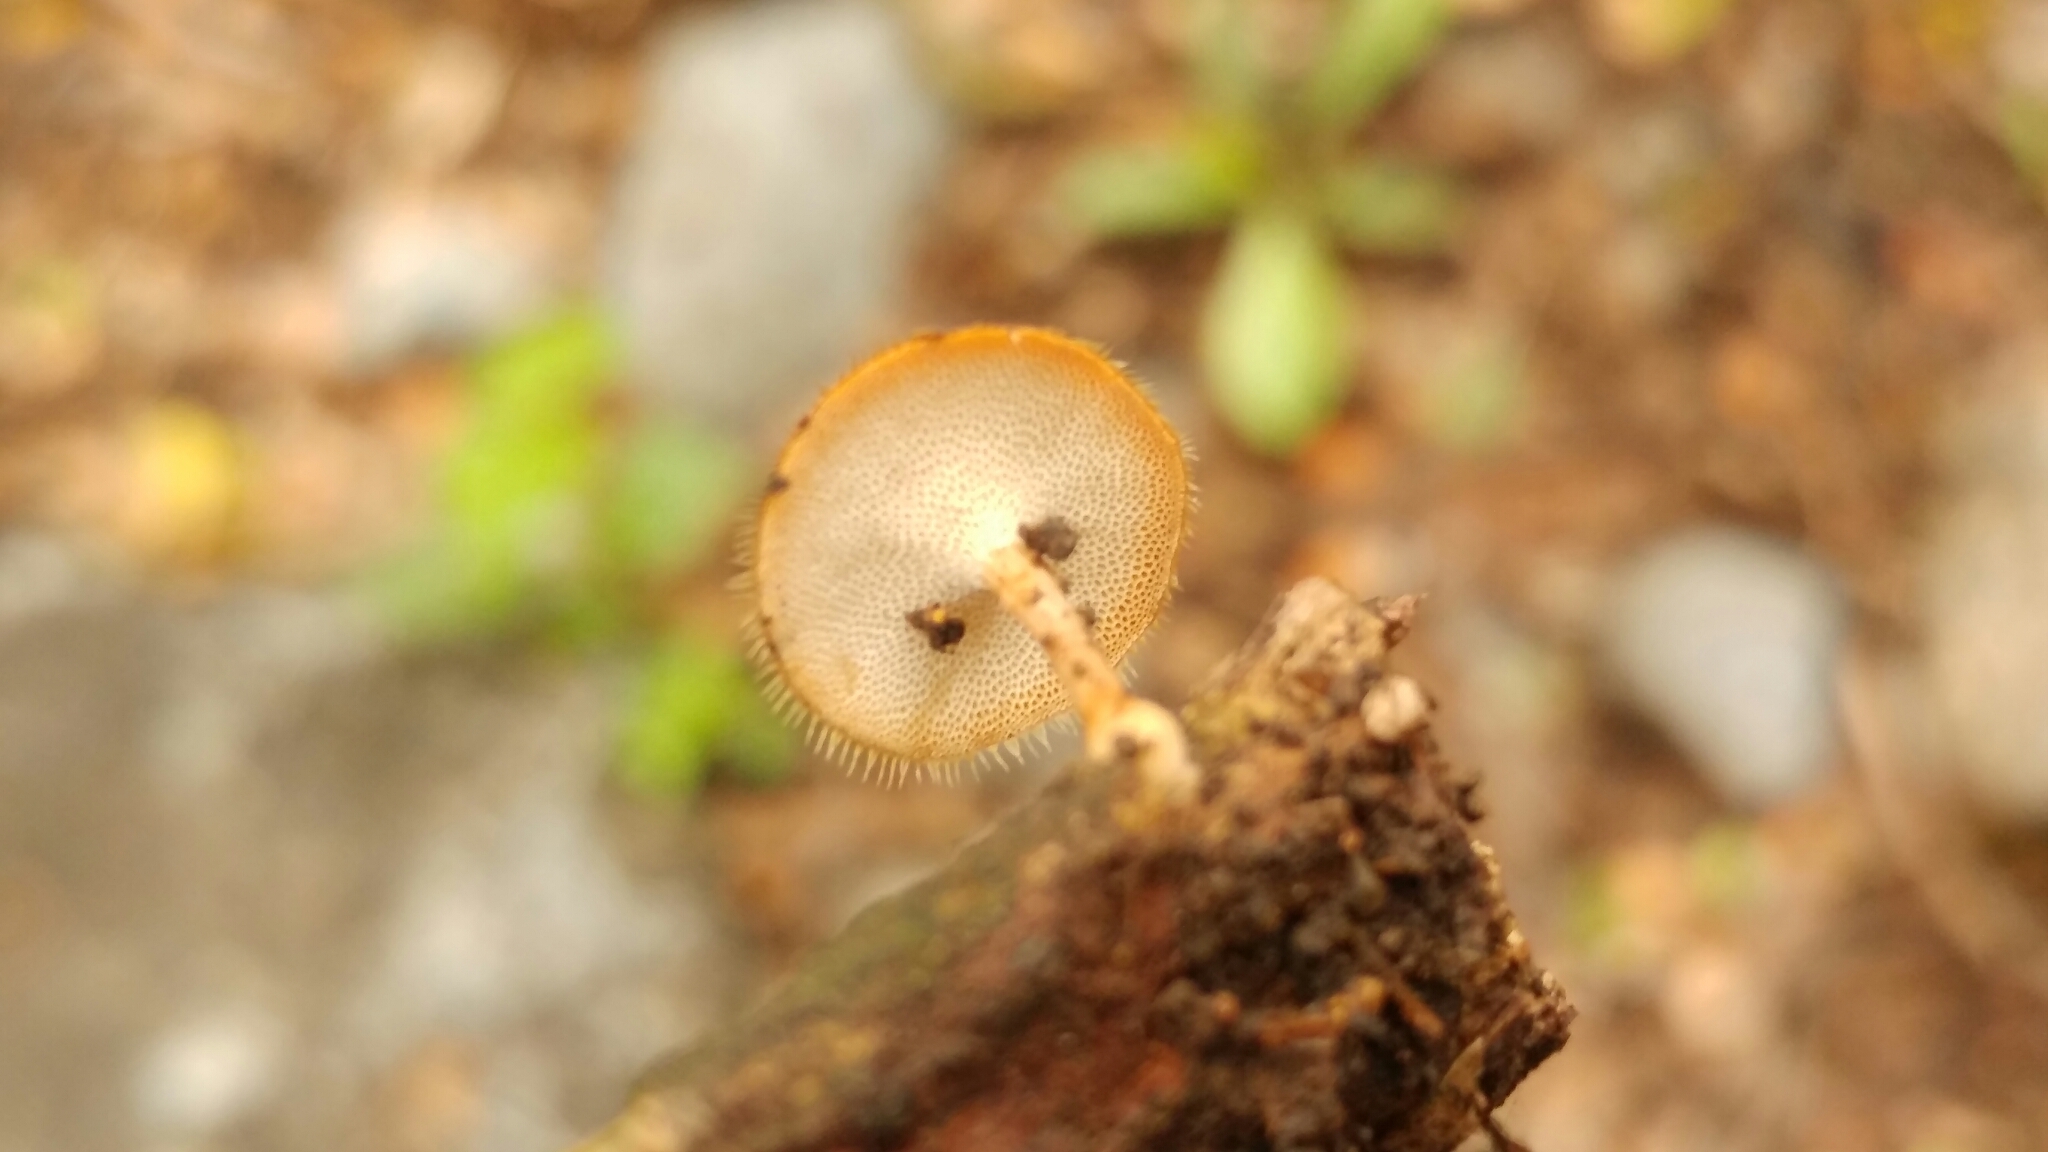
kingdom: Fungi
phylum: Basidiomycota
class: Agaricomycetes
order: Polyporales
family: Polyporaceae
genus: Lentinus
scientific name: Lentinus flexipes
